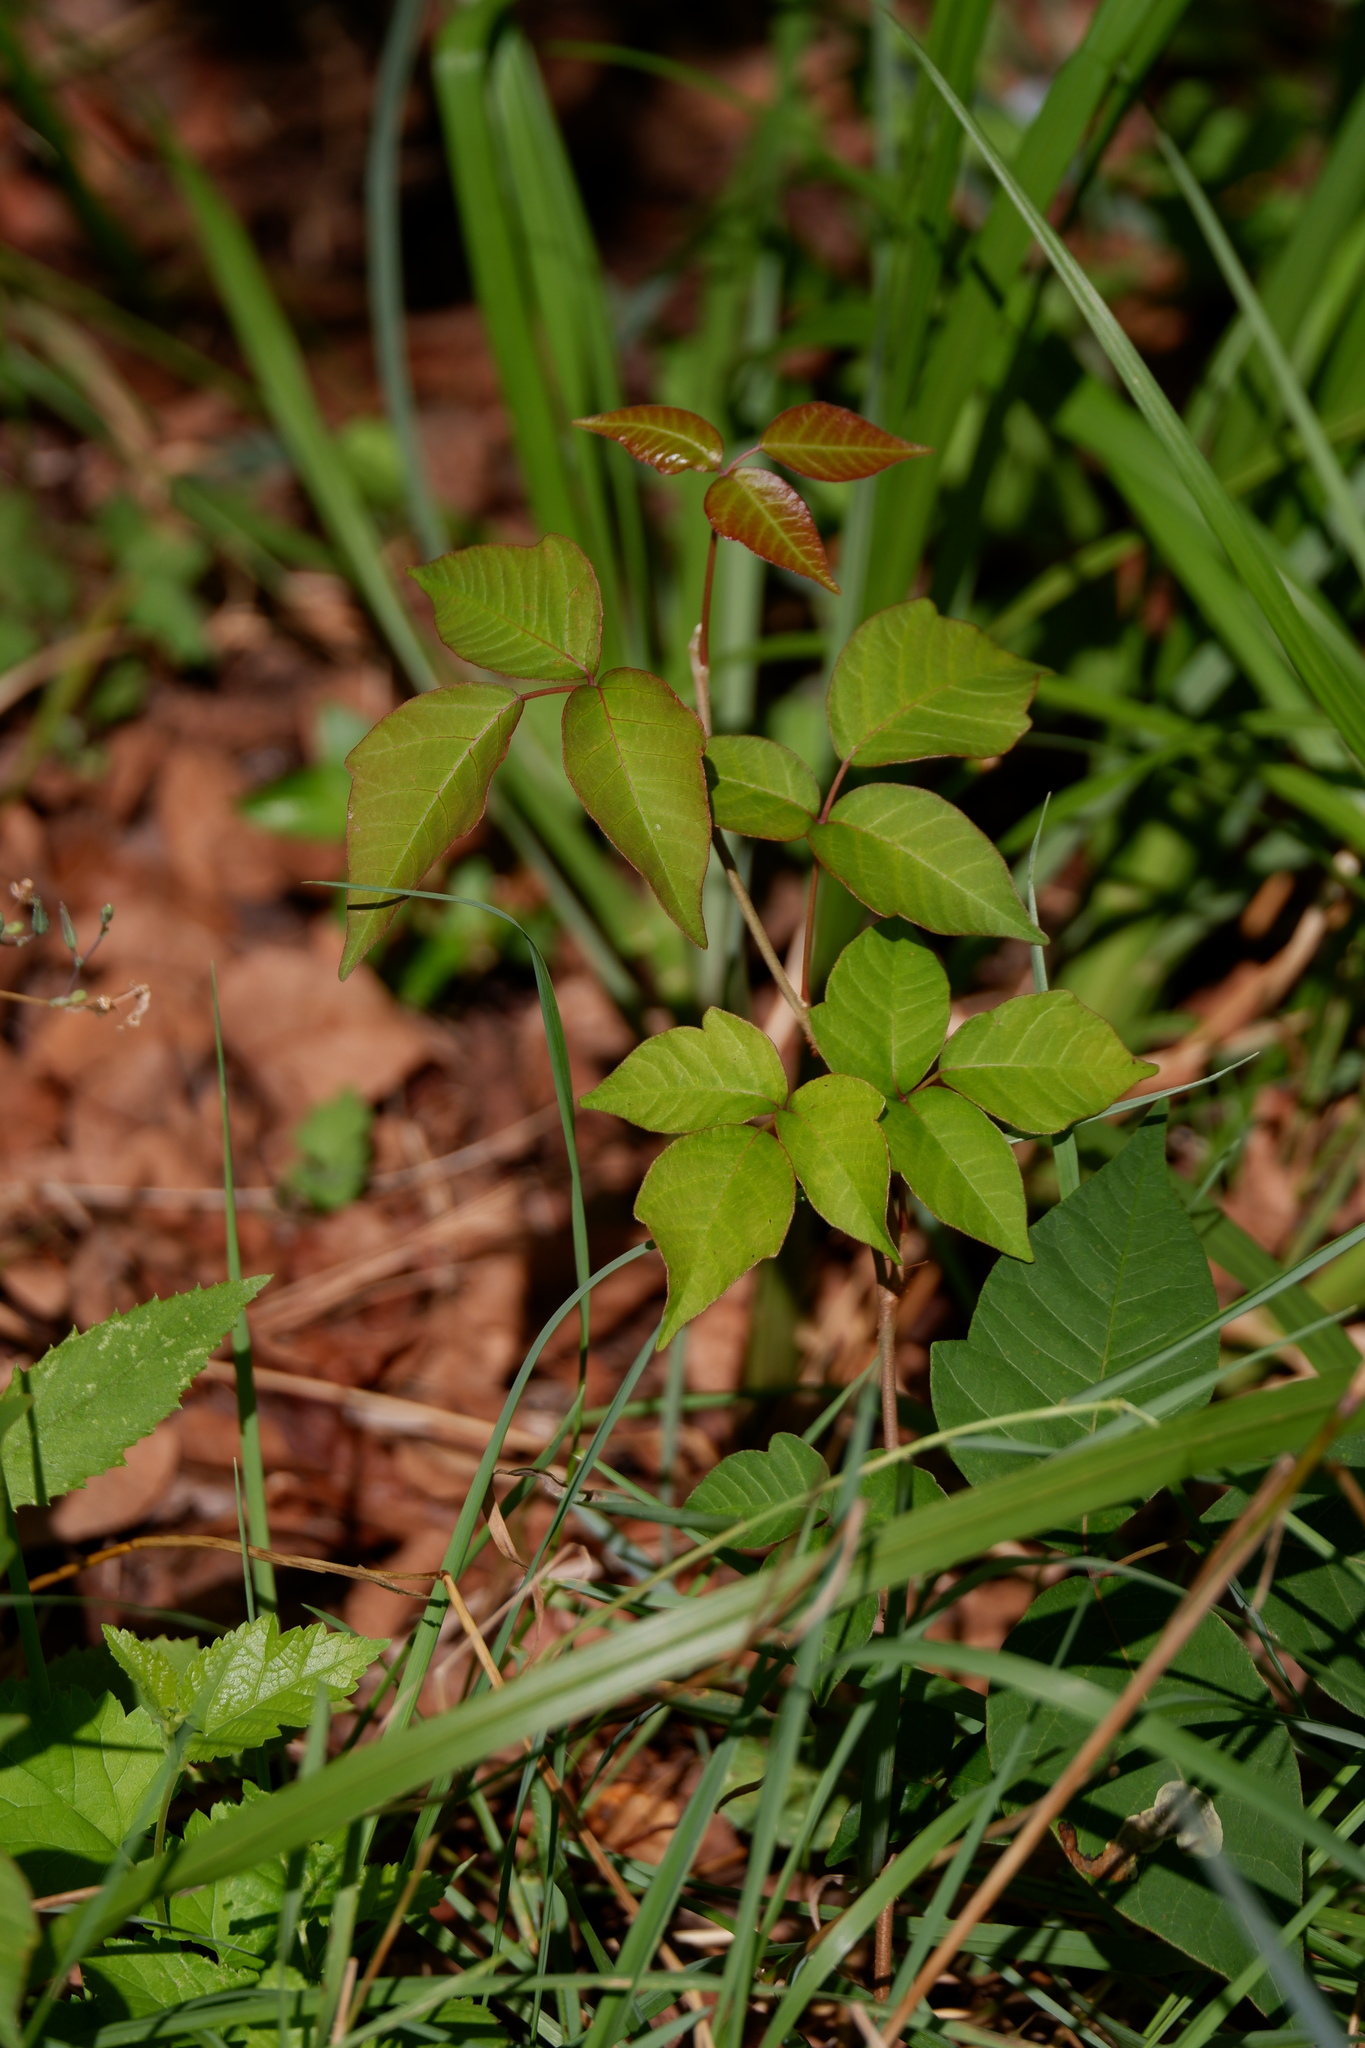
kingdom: Plantae
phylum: Tracheophyta
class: Magnoliopsida
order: Sapindales
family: Anacardiaceae
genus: Toxicodendron
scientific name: Toxicodendron radicans
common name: Poison ivy
